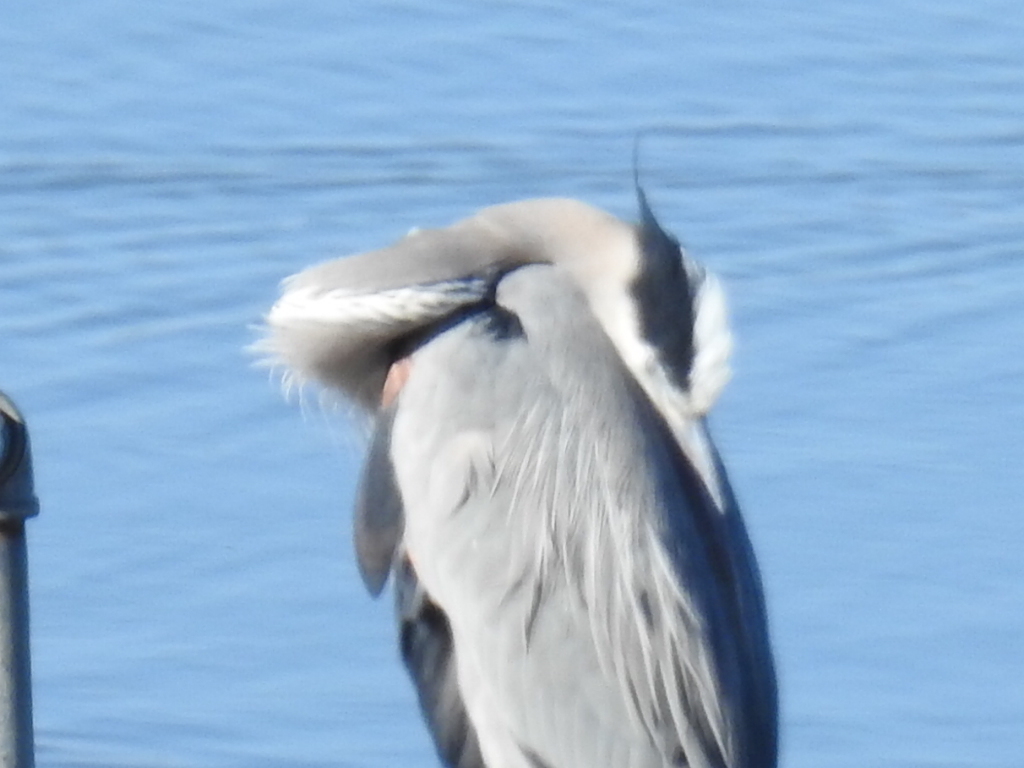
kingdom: Animalia
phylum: Chordata
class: Aves
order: Pelecaniformes
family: Ardeidae
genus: Ardea
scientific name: Ardea herodias
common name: Great blue heron
